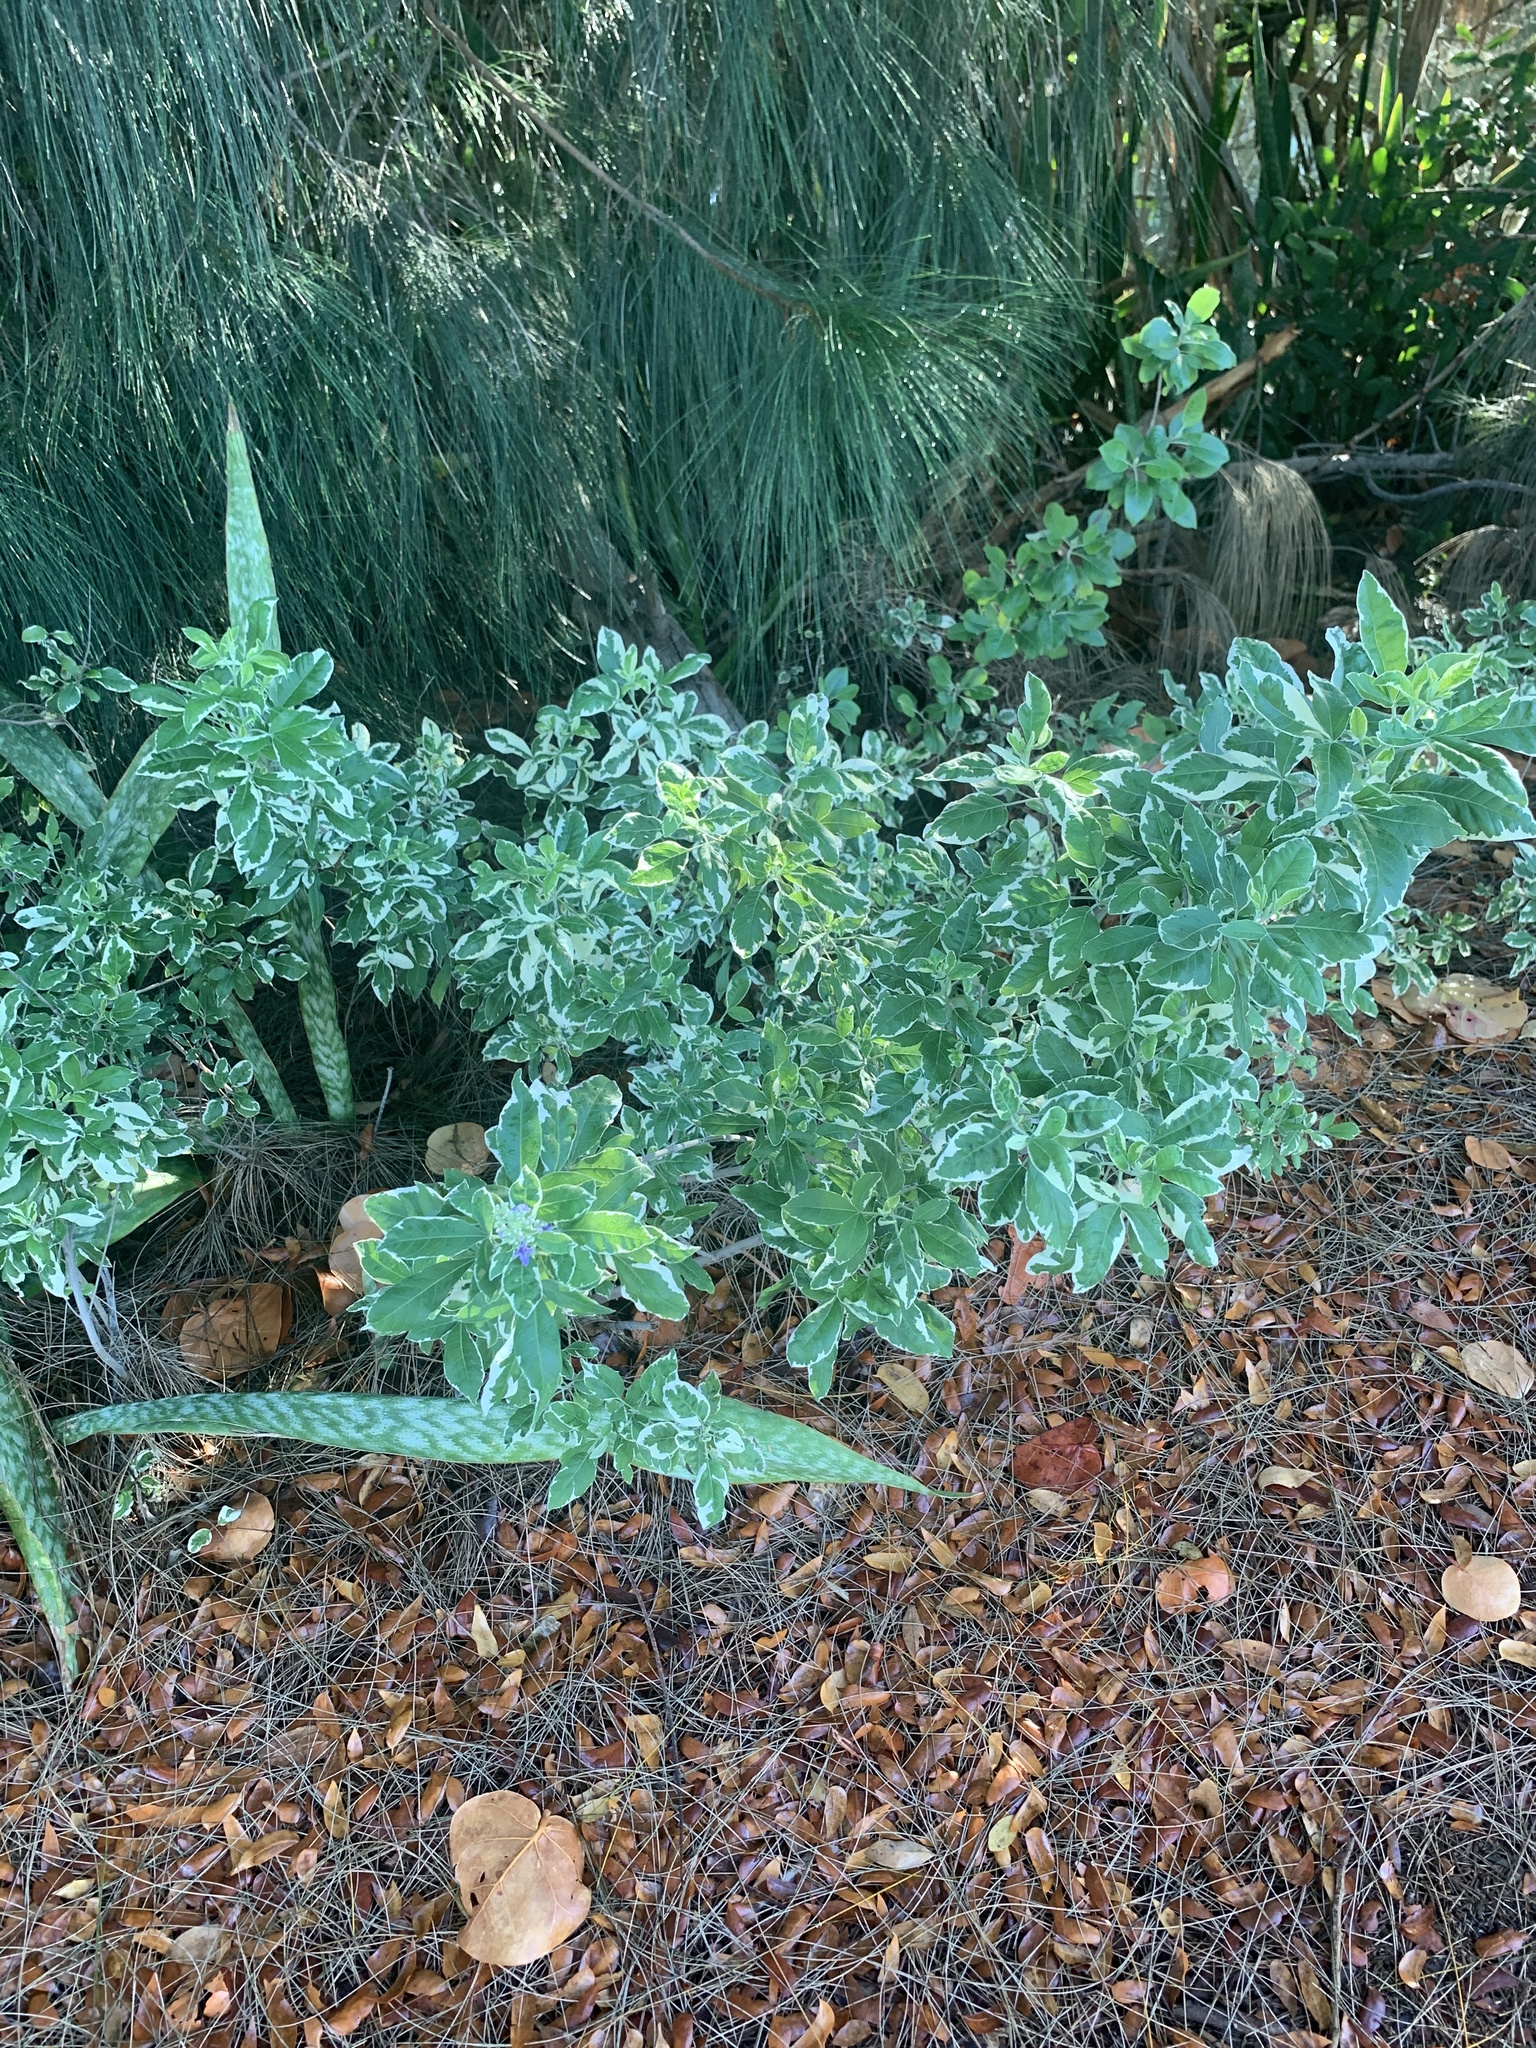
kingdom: Plantae
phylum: Tracheophyta
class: Magnoliopsida
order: Lamiales
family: Lamiaceae
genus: Vitex
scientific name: Vitex trifolia
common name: Simpleleaf chastetree
